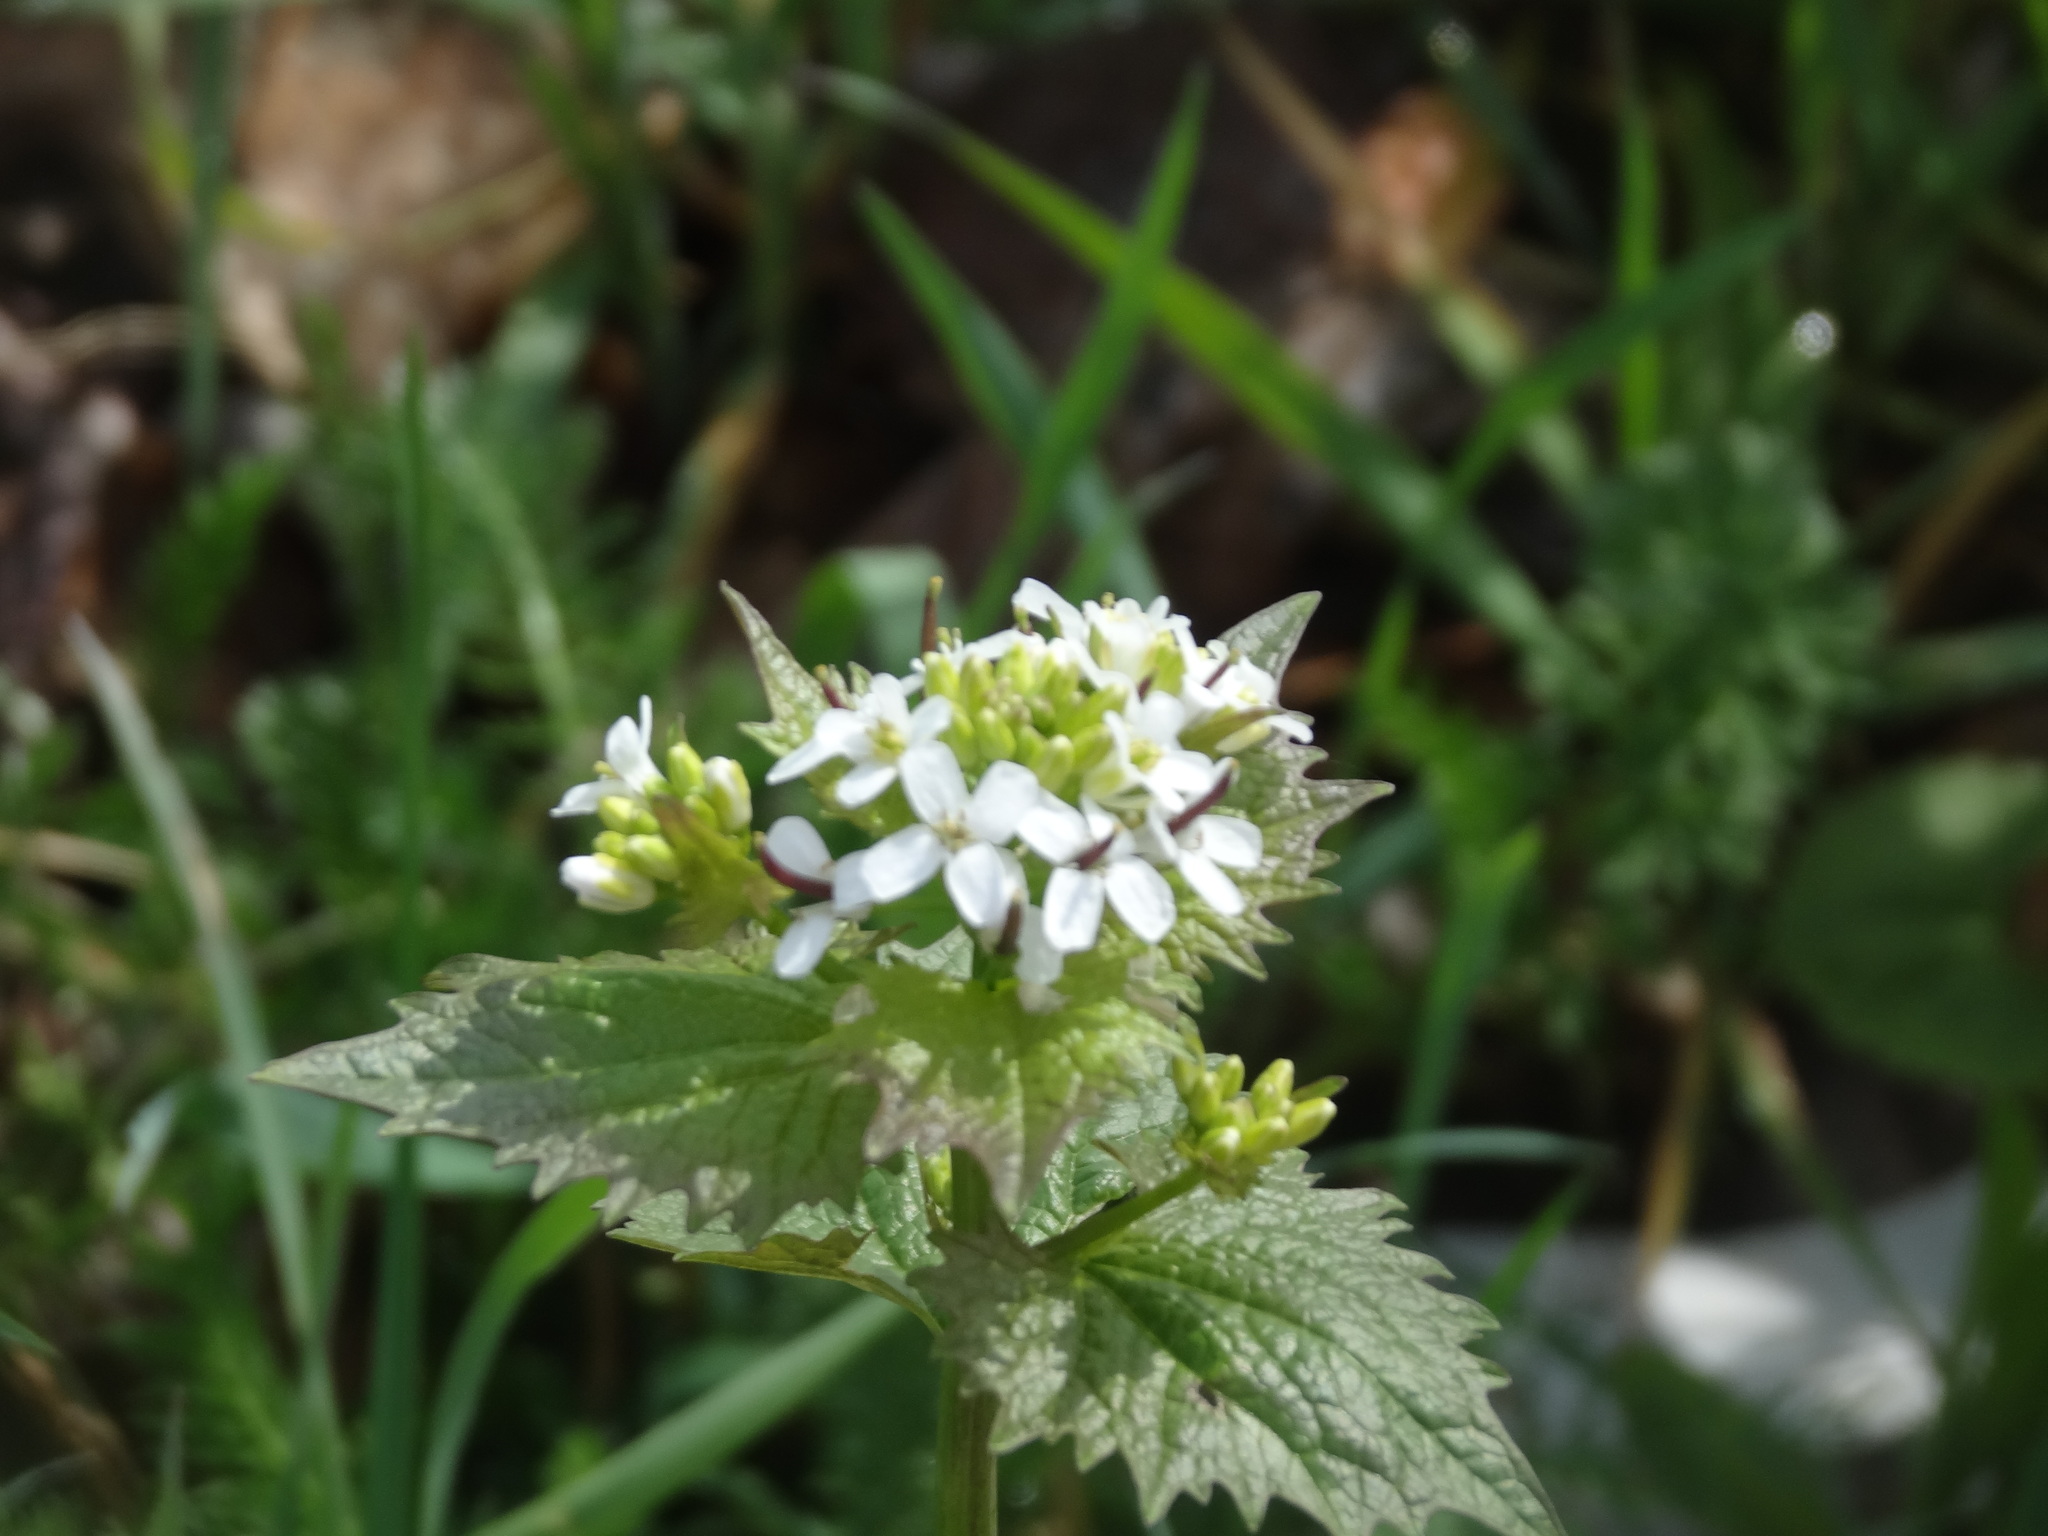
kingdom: Plantae
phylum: Tracheophyta
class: Magnoliopsida
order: Brassicales
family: Brassicaceae
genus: Alliaria
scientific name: Alliaria petiolata
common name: Garlic mustard
